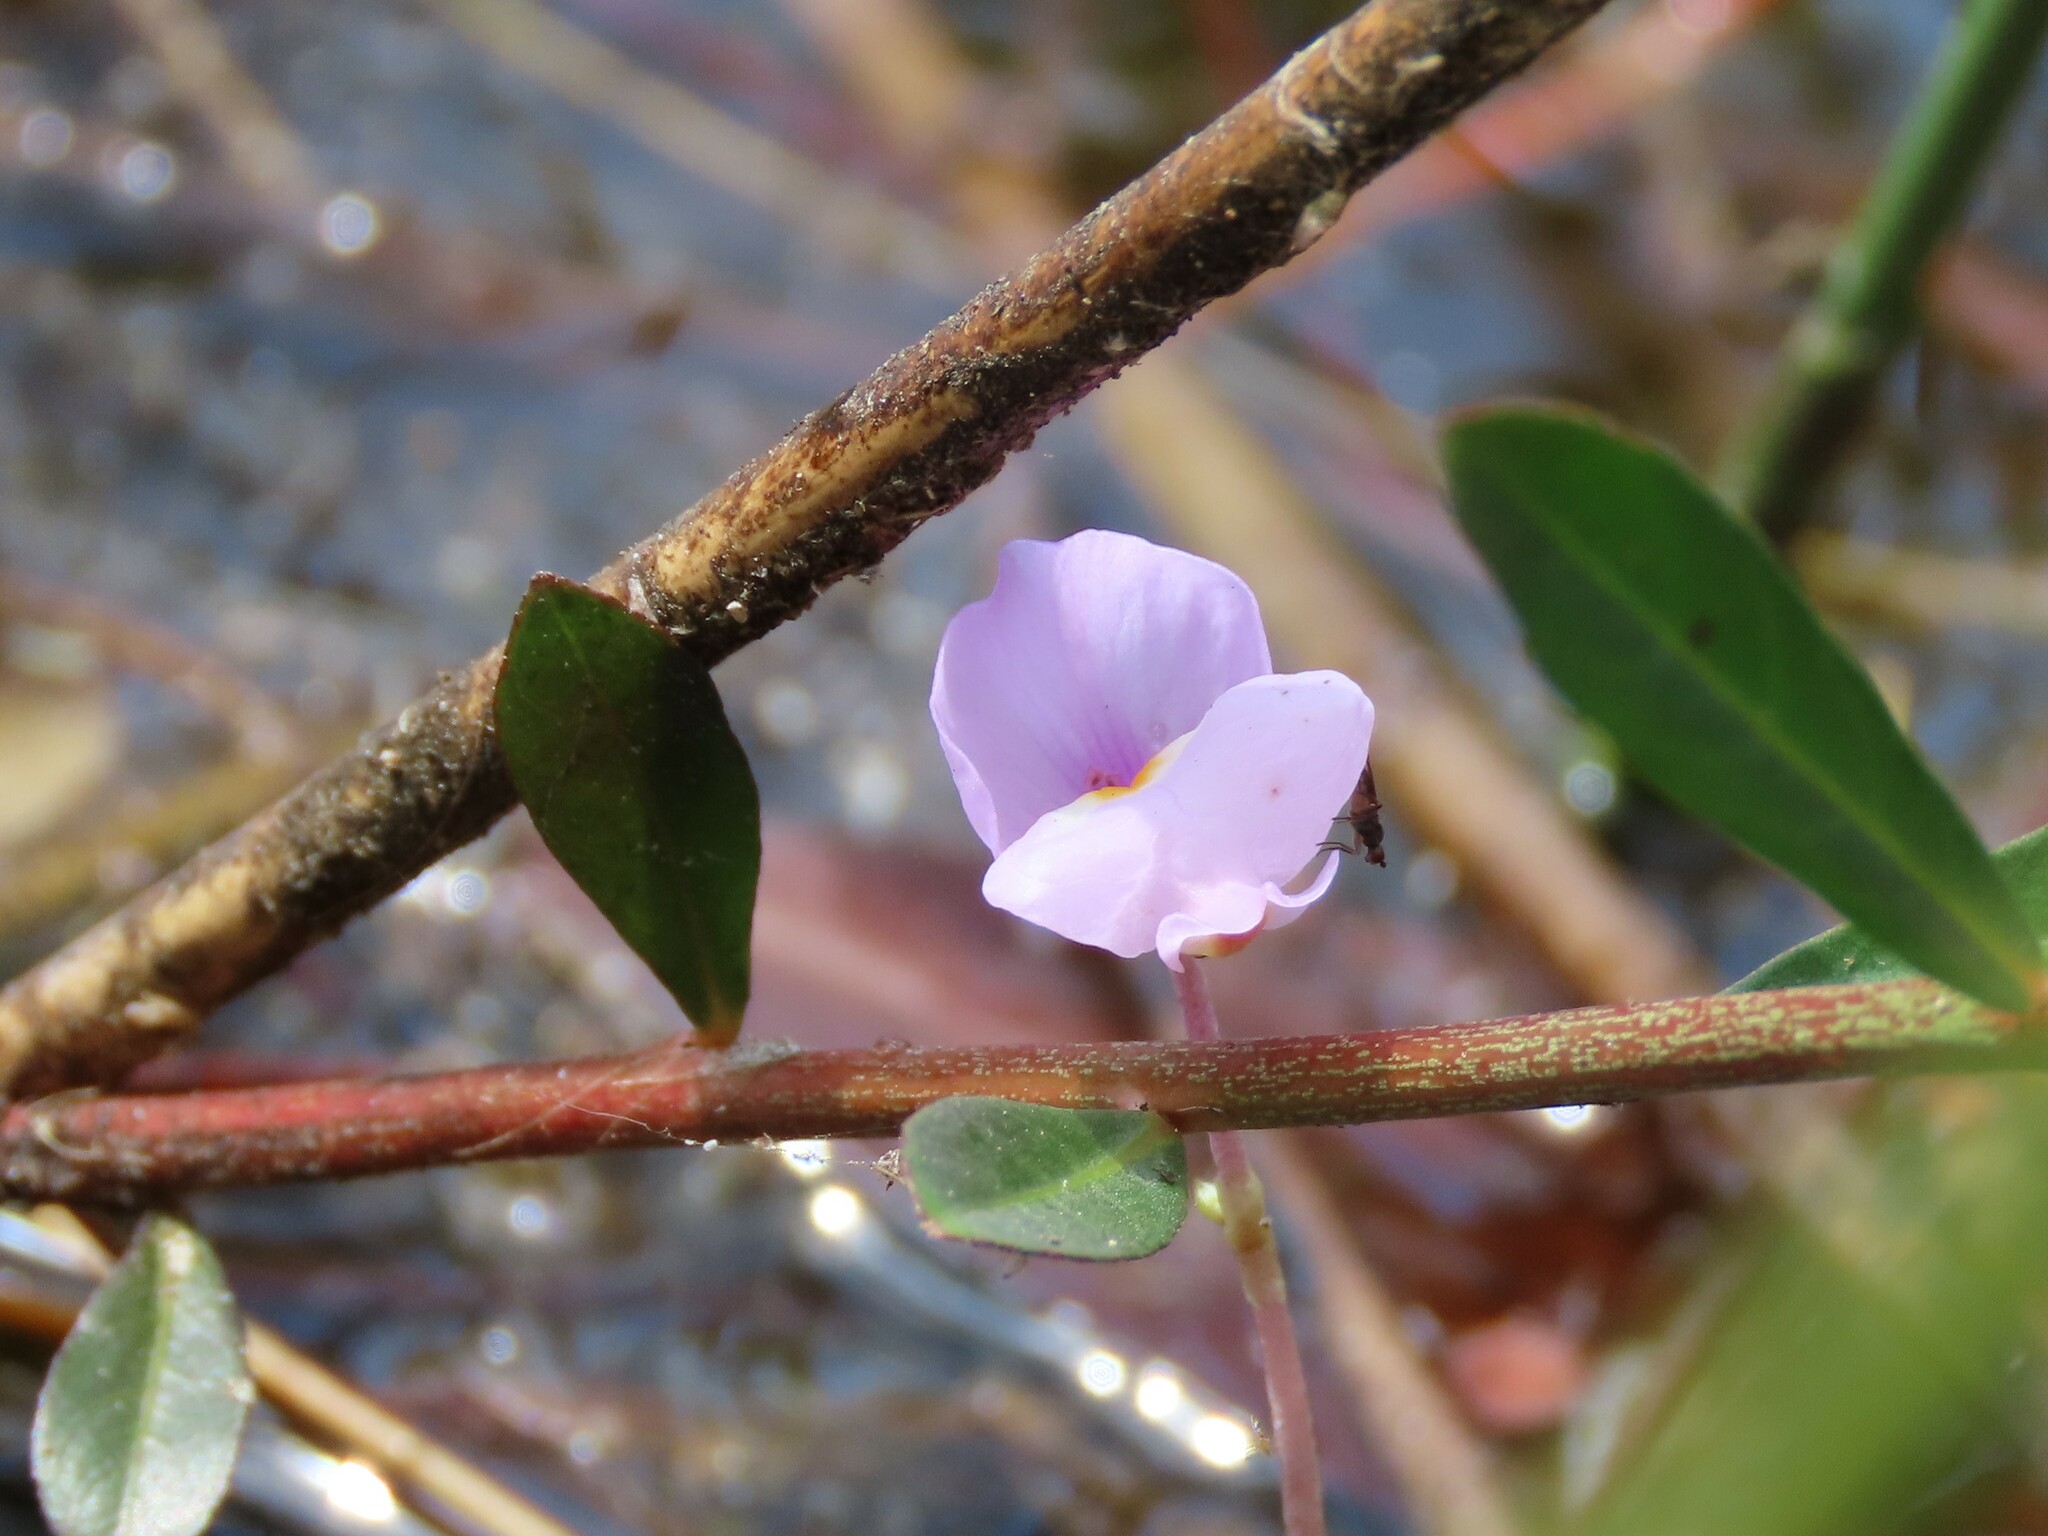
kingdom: Plantae
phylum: Tracheophyta
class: Magnoliopsida
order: Lamiales
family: Lentibulariaceae
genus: Utricularia
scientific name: Utricularia purpurea
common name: Eastern purple bladderwort
